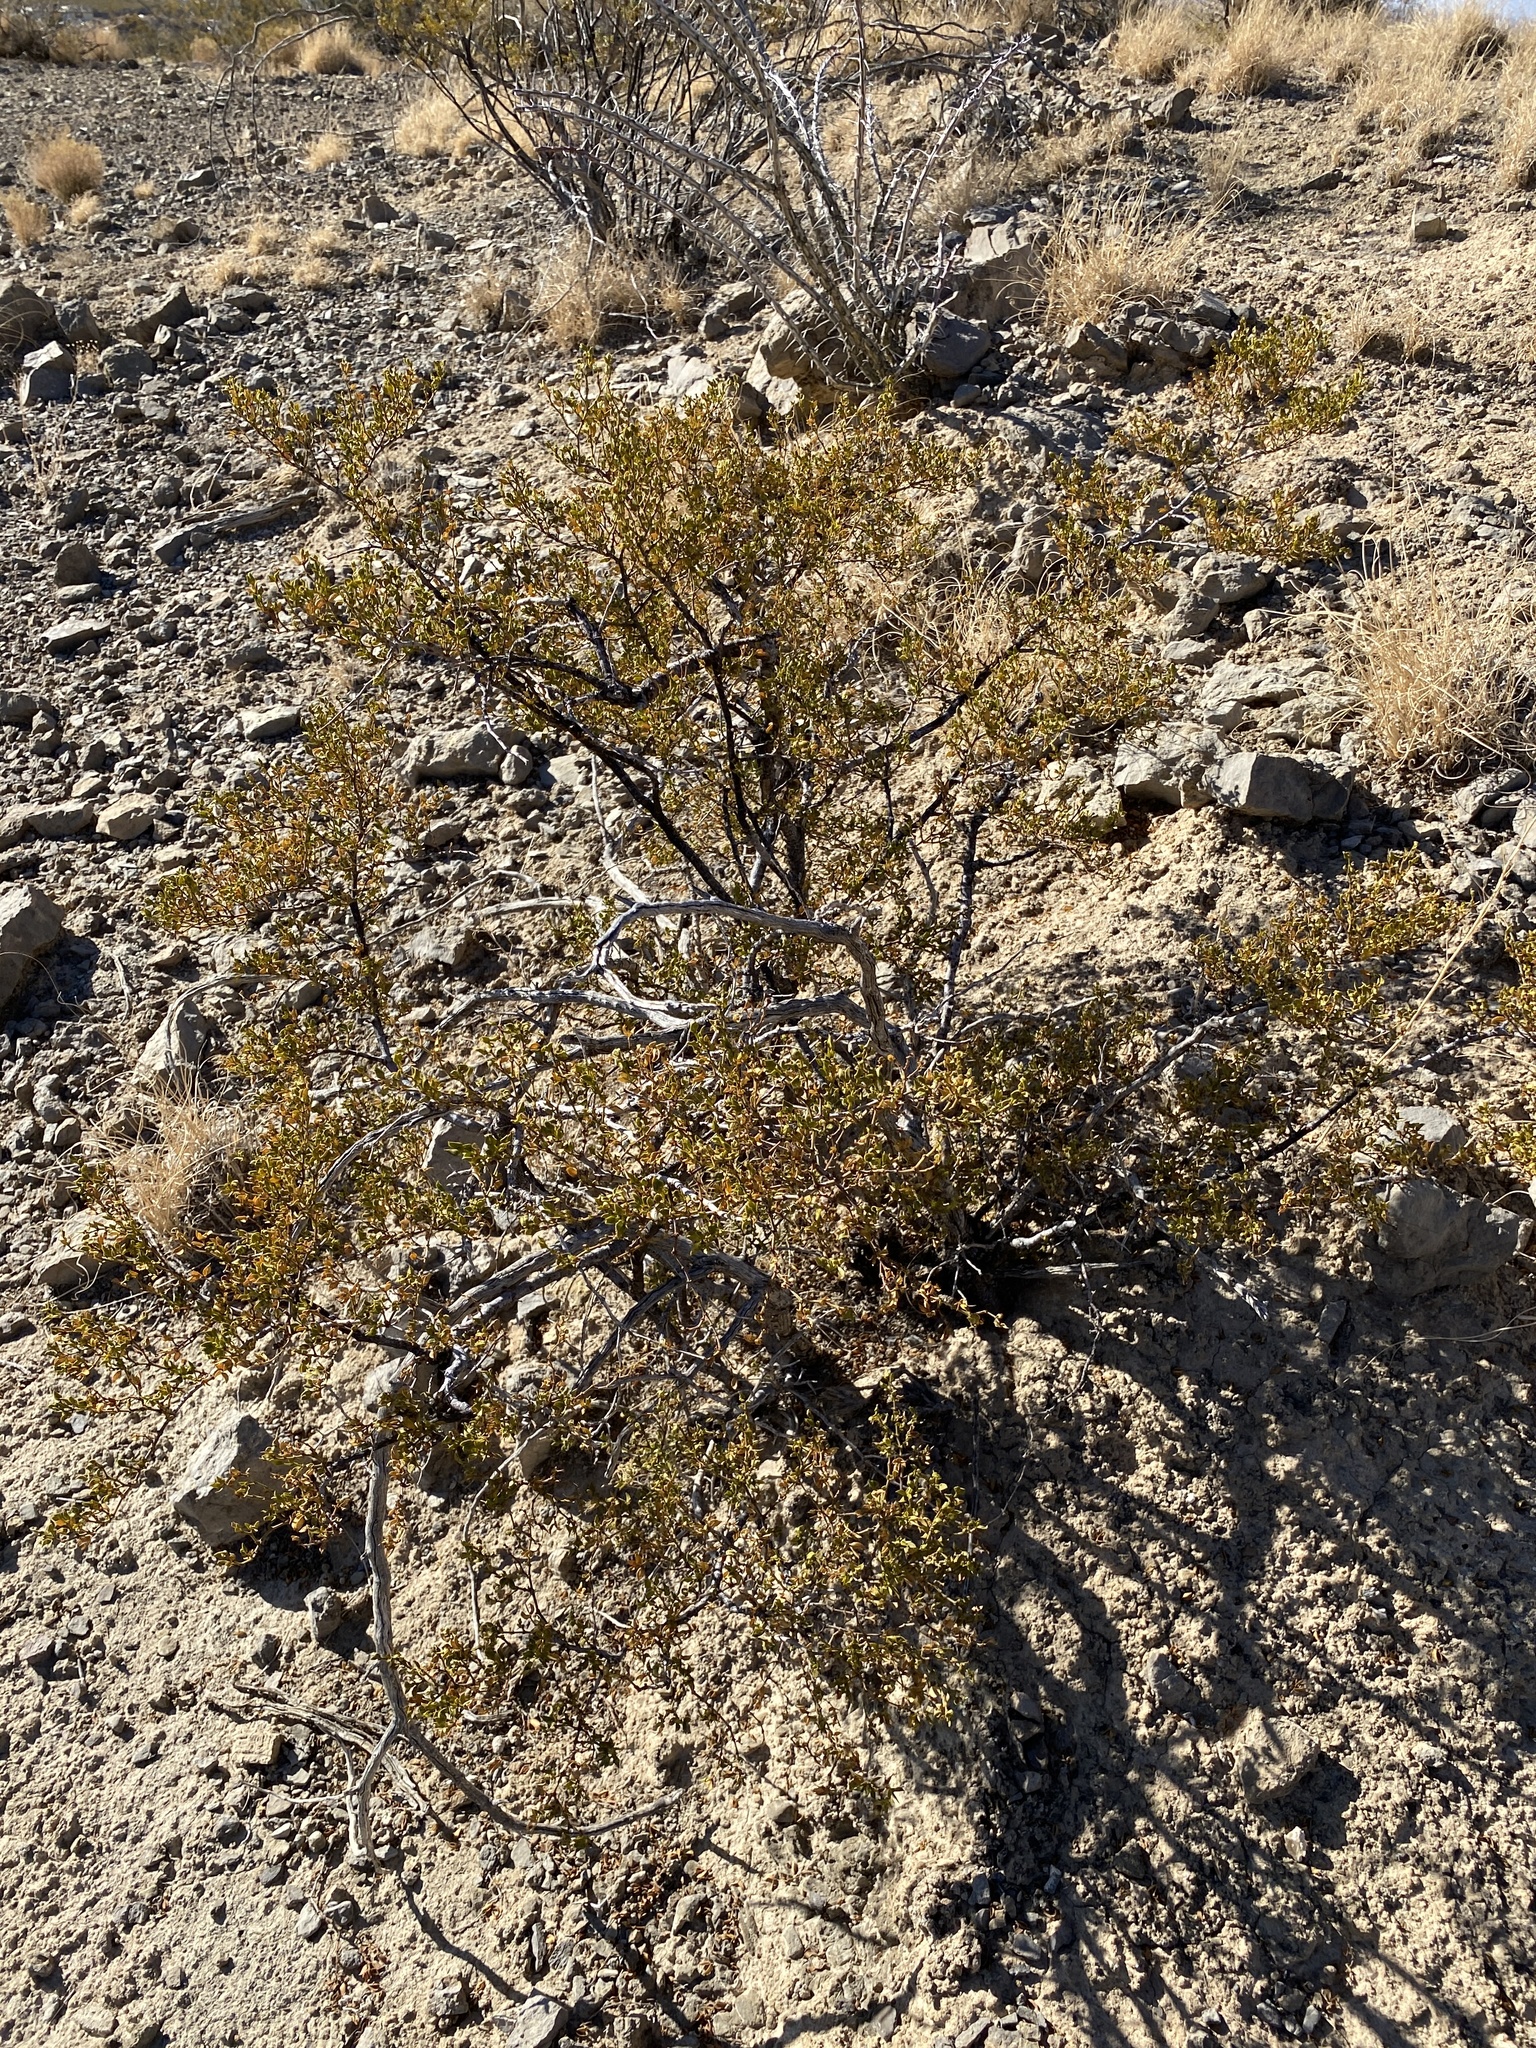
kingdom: Plantae
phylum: Tracheophyta
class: Magnoliopsida
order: Zygophyllales
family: Zygophyllaceae
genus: Larrea
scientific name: Larrea tridentata
